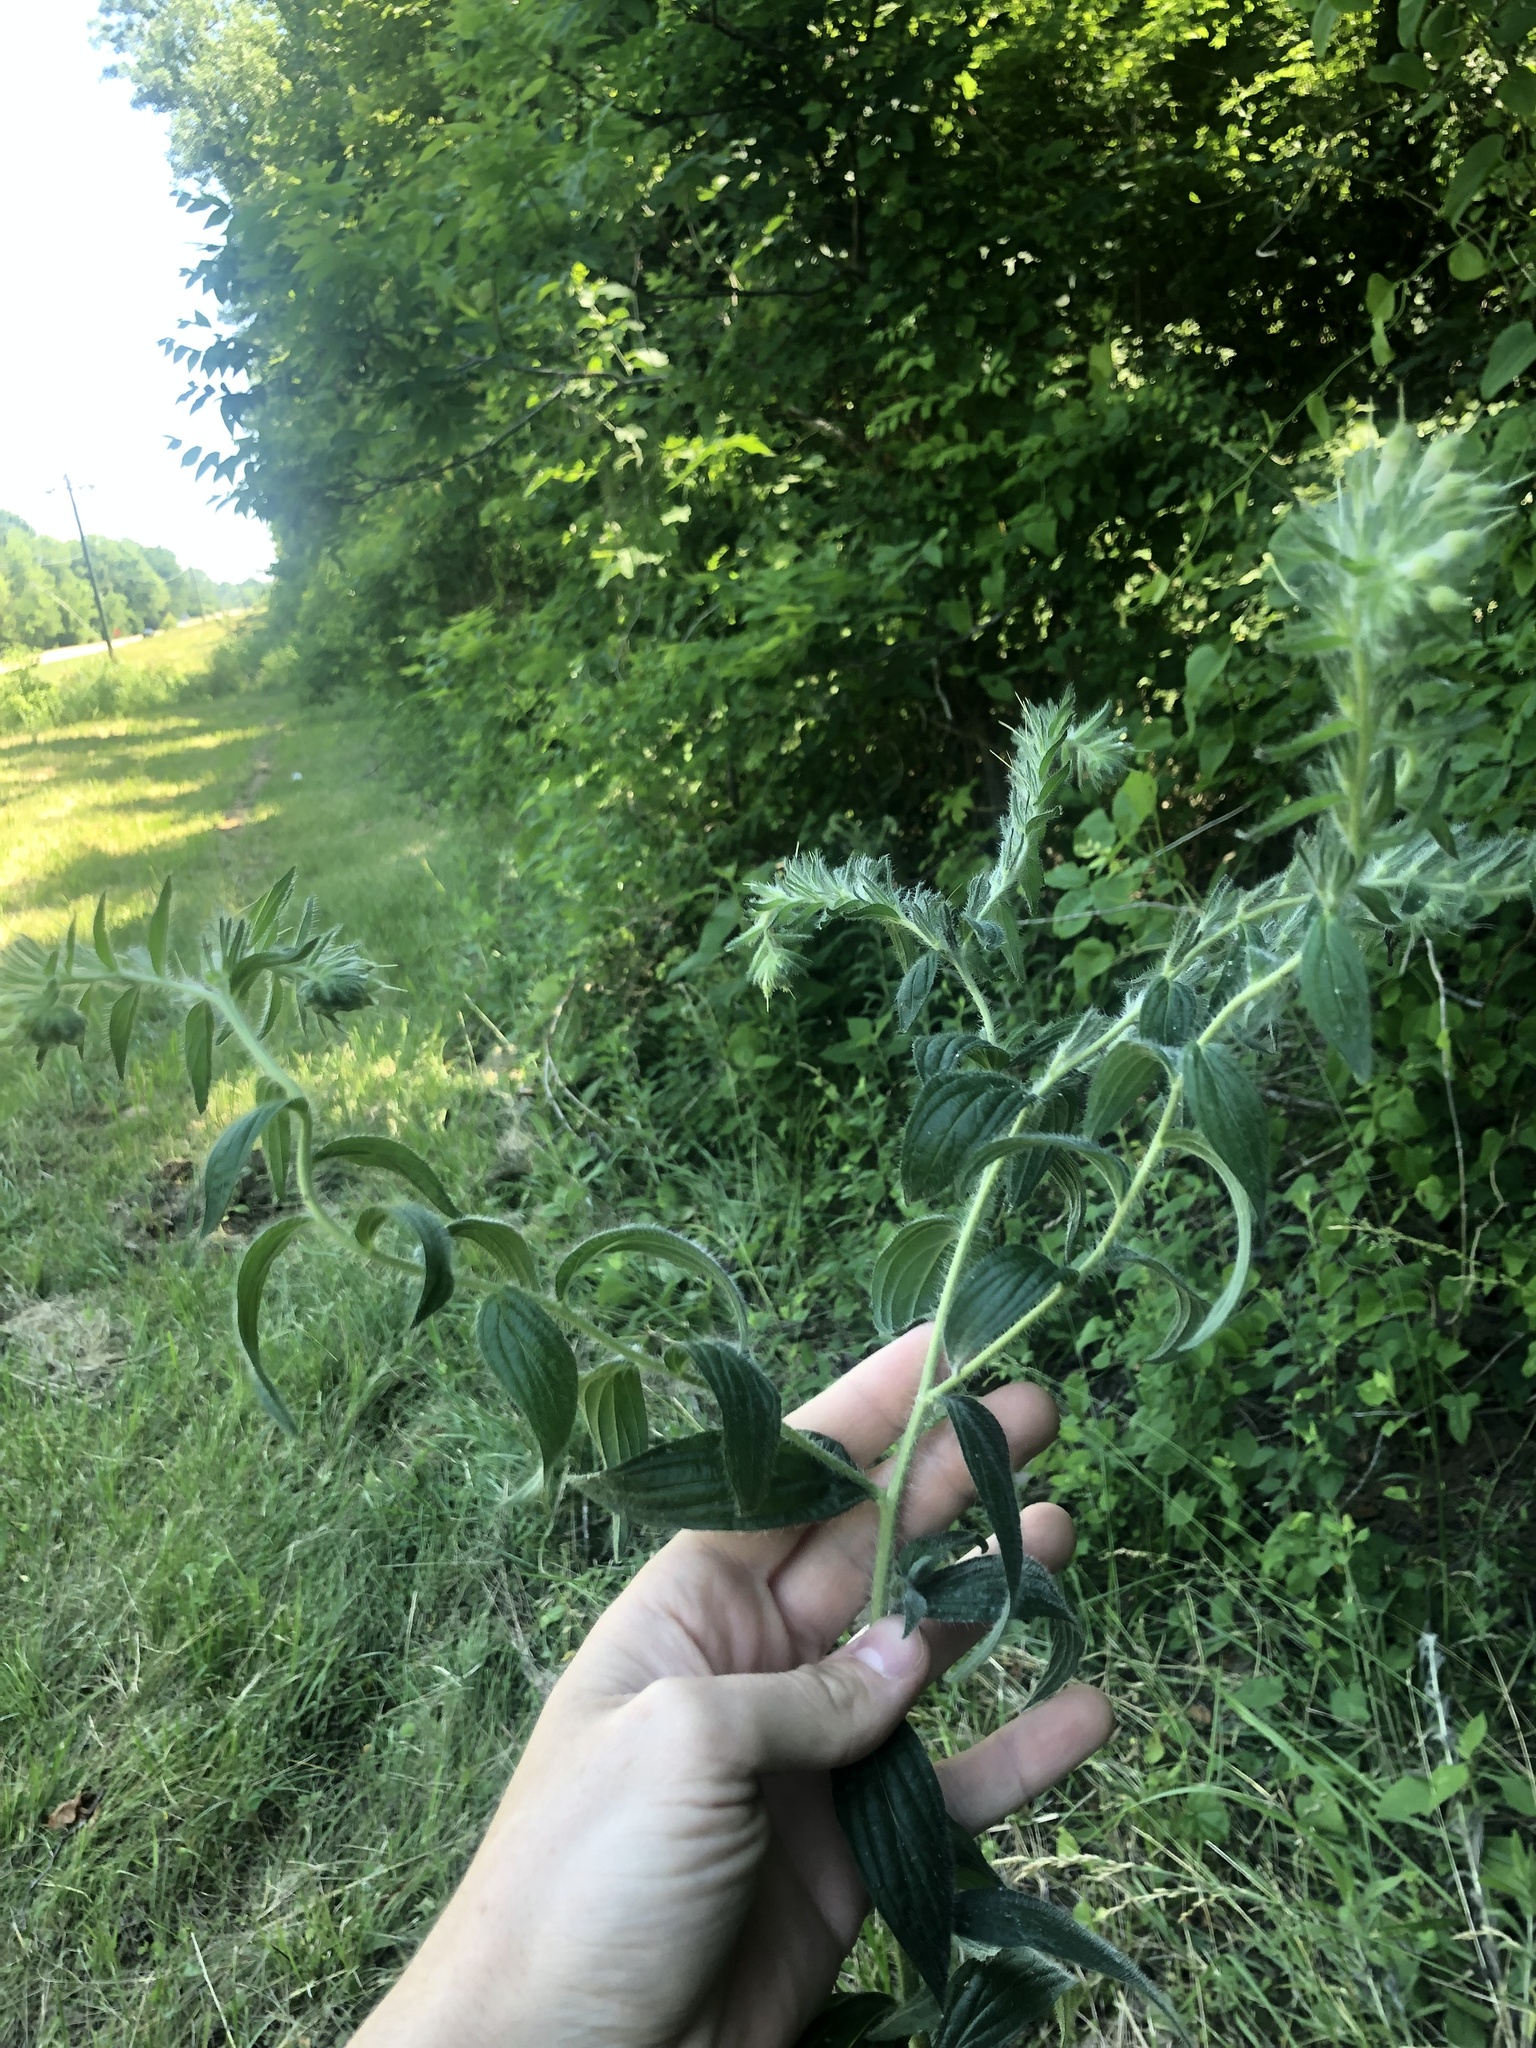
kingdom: Plantae
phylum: Tracheophyta
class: Magnoliopsida
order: Boraginales
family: Boraginaceae
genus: Lithospermum
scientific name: Lithospermum caroliniense
